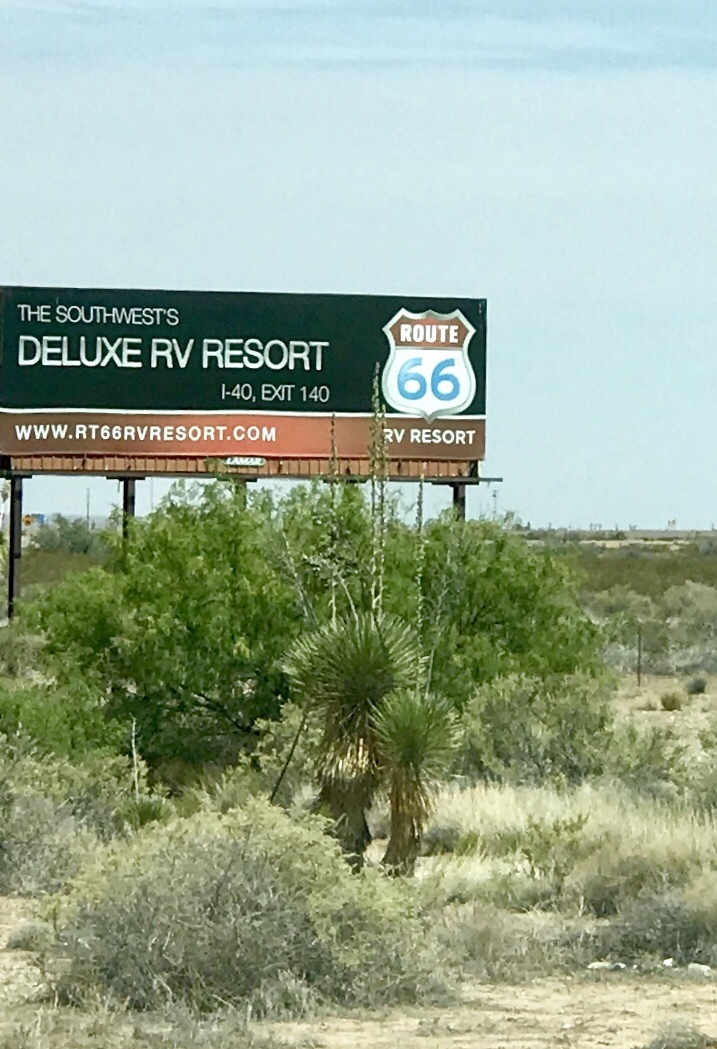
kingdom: Plantae
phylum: Tracheophyta
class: Liliopsida
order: Asparagales
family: Asparagaceae
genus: Yucca
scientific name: Yucca elata
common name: Palmella
